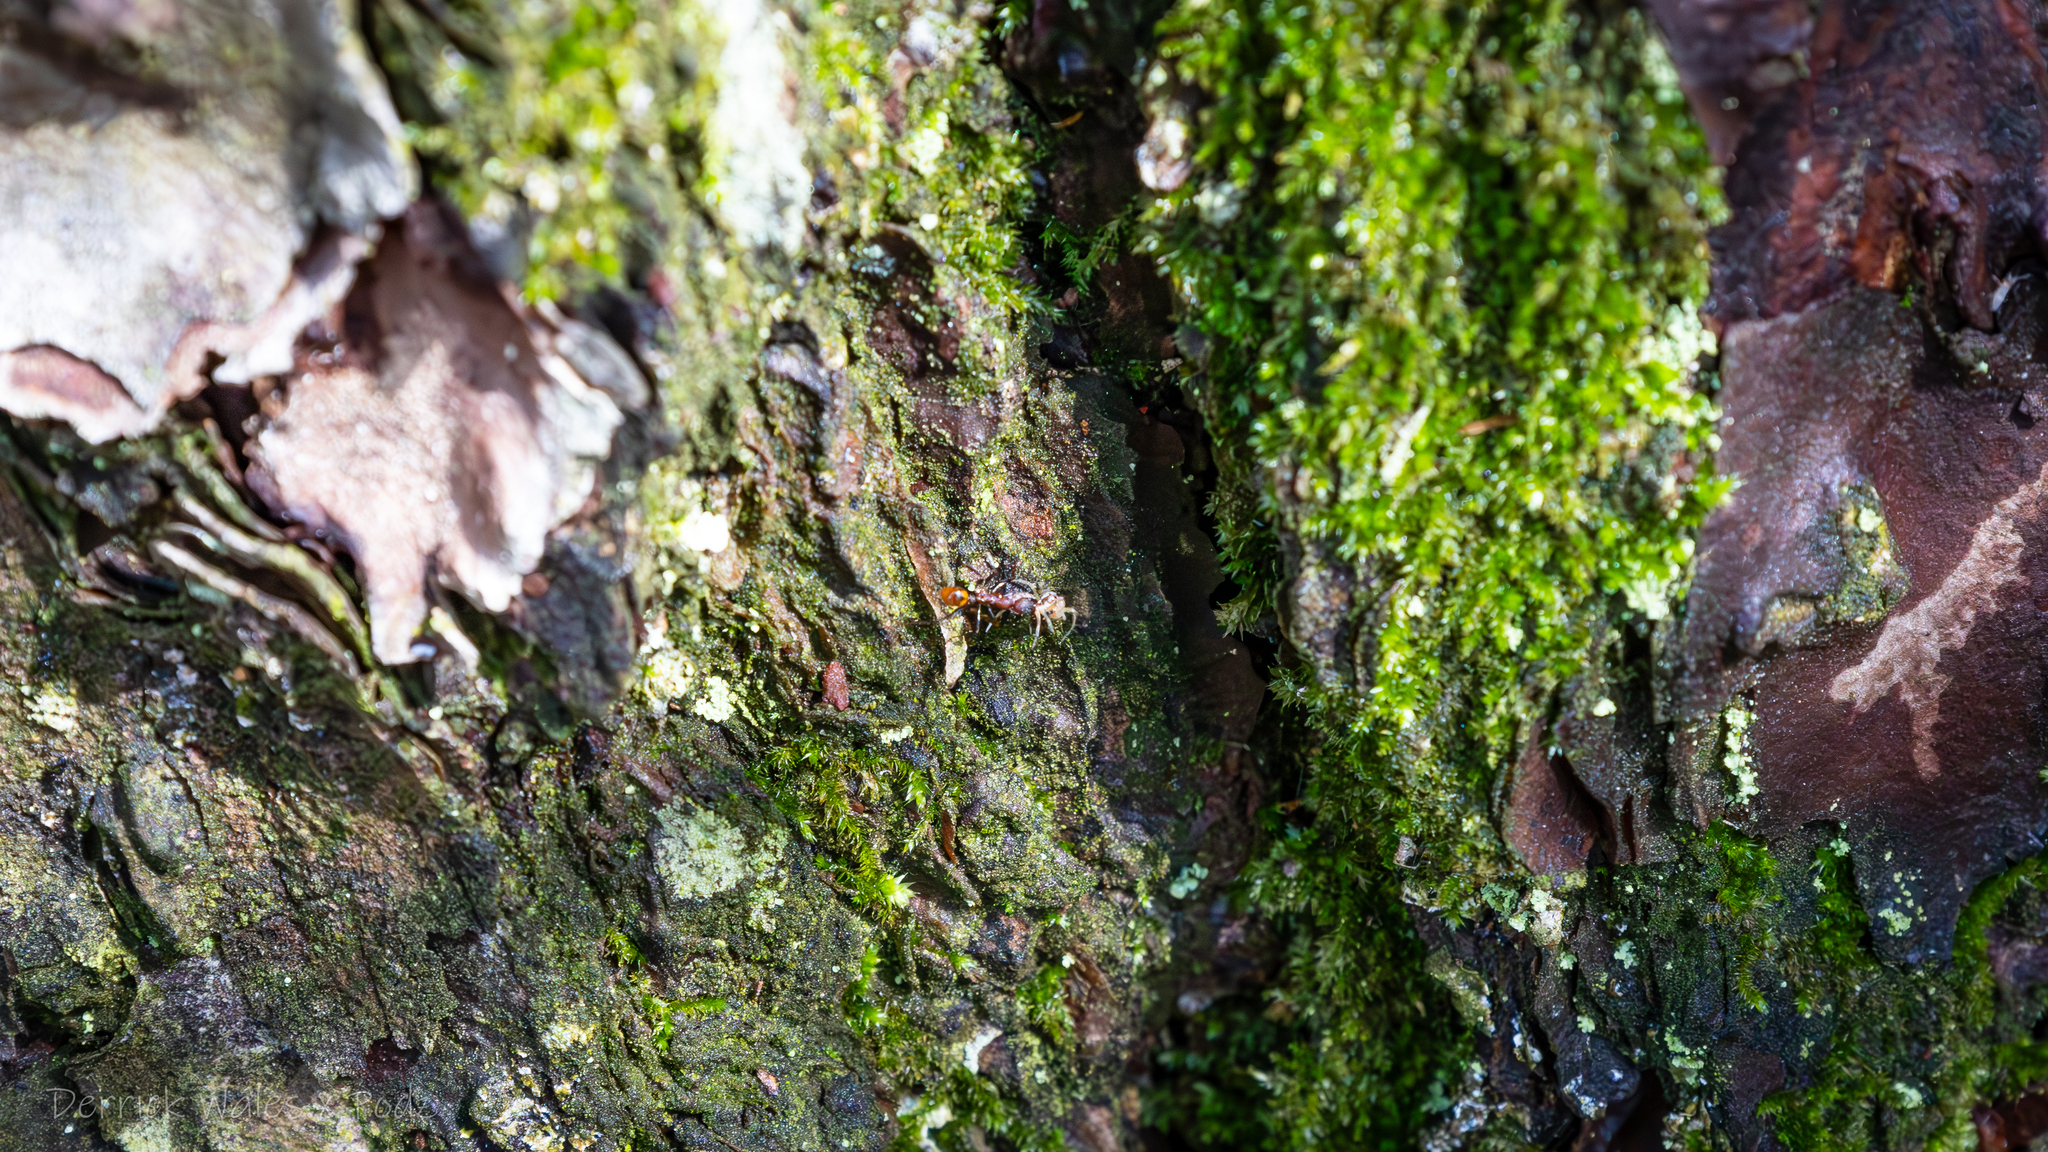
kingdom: Animalia
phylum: Arthropoda
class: Insecta
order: Hymenoptera
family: Formicidae
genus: Aphaenogaster
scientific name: Aphaenogaster lamellidens
